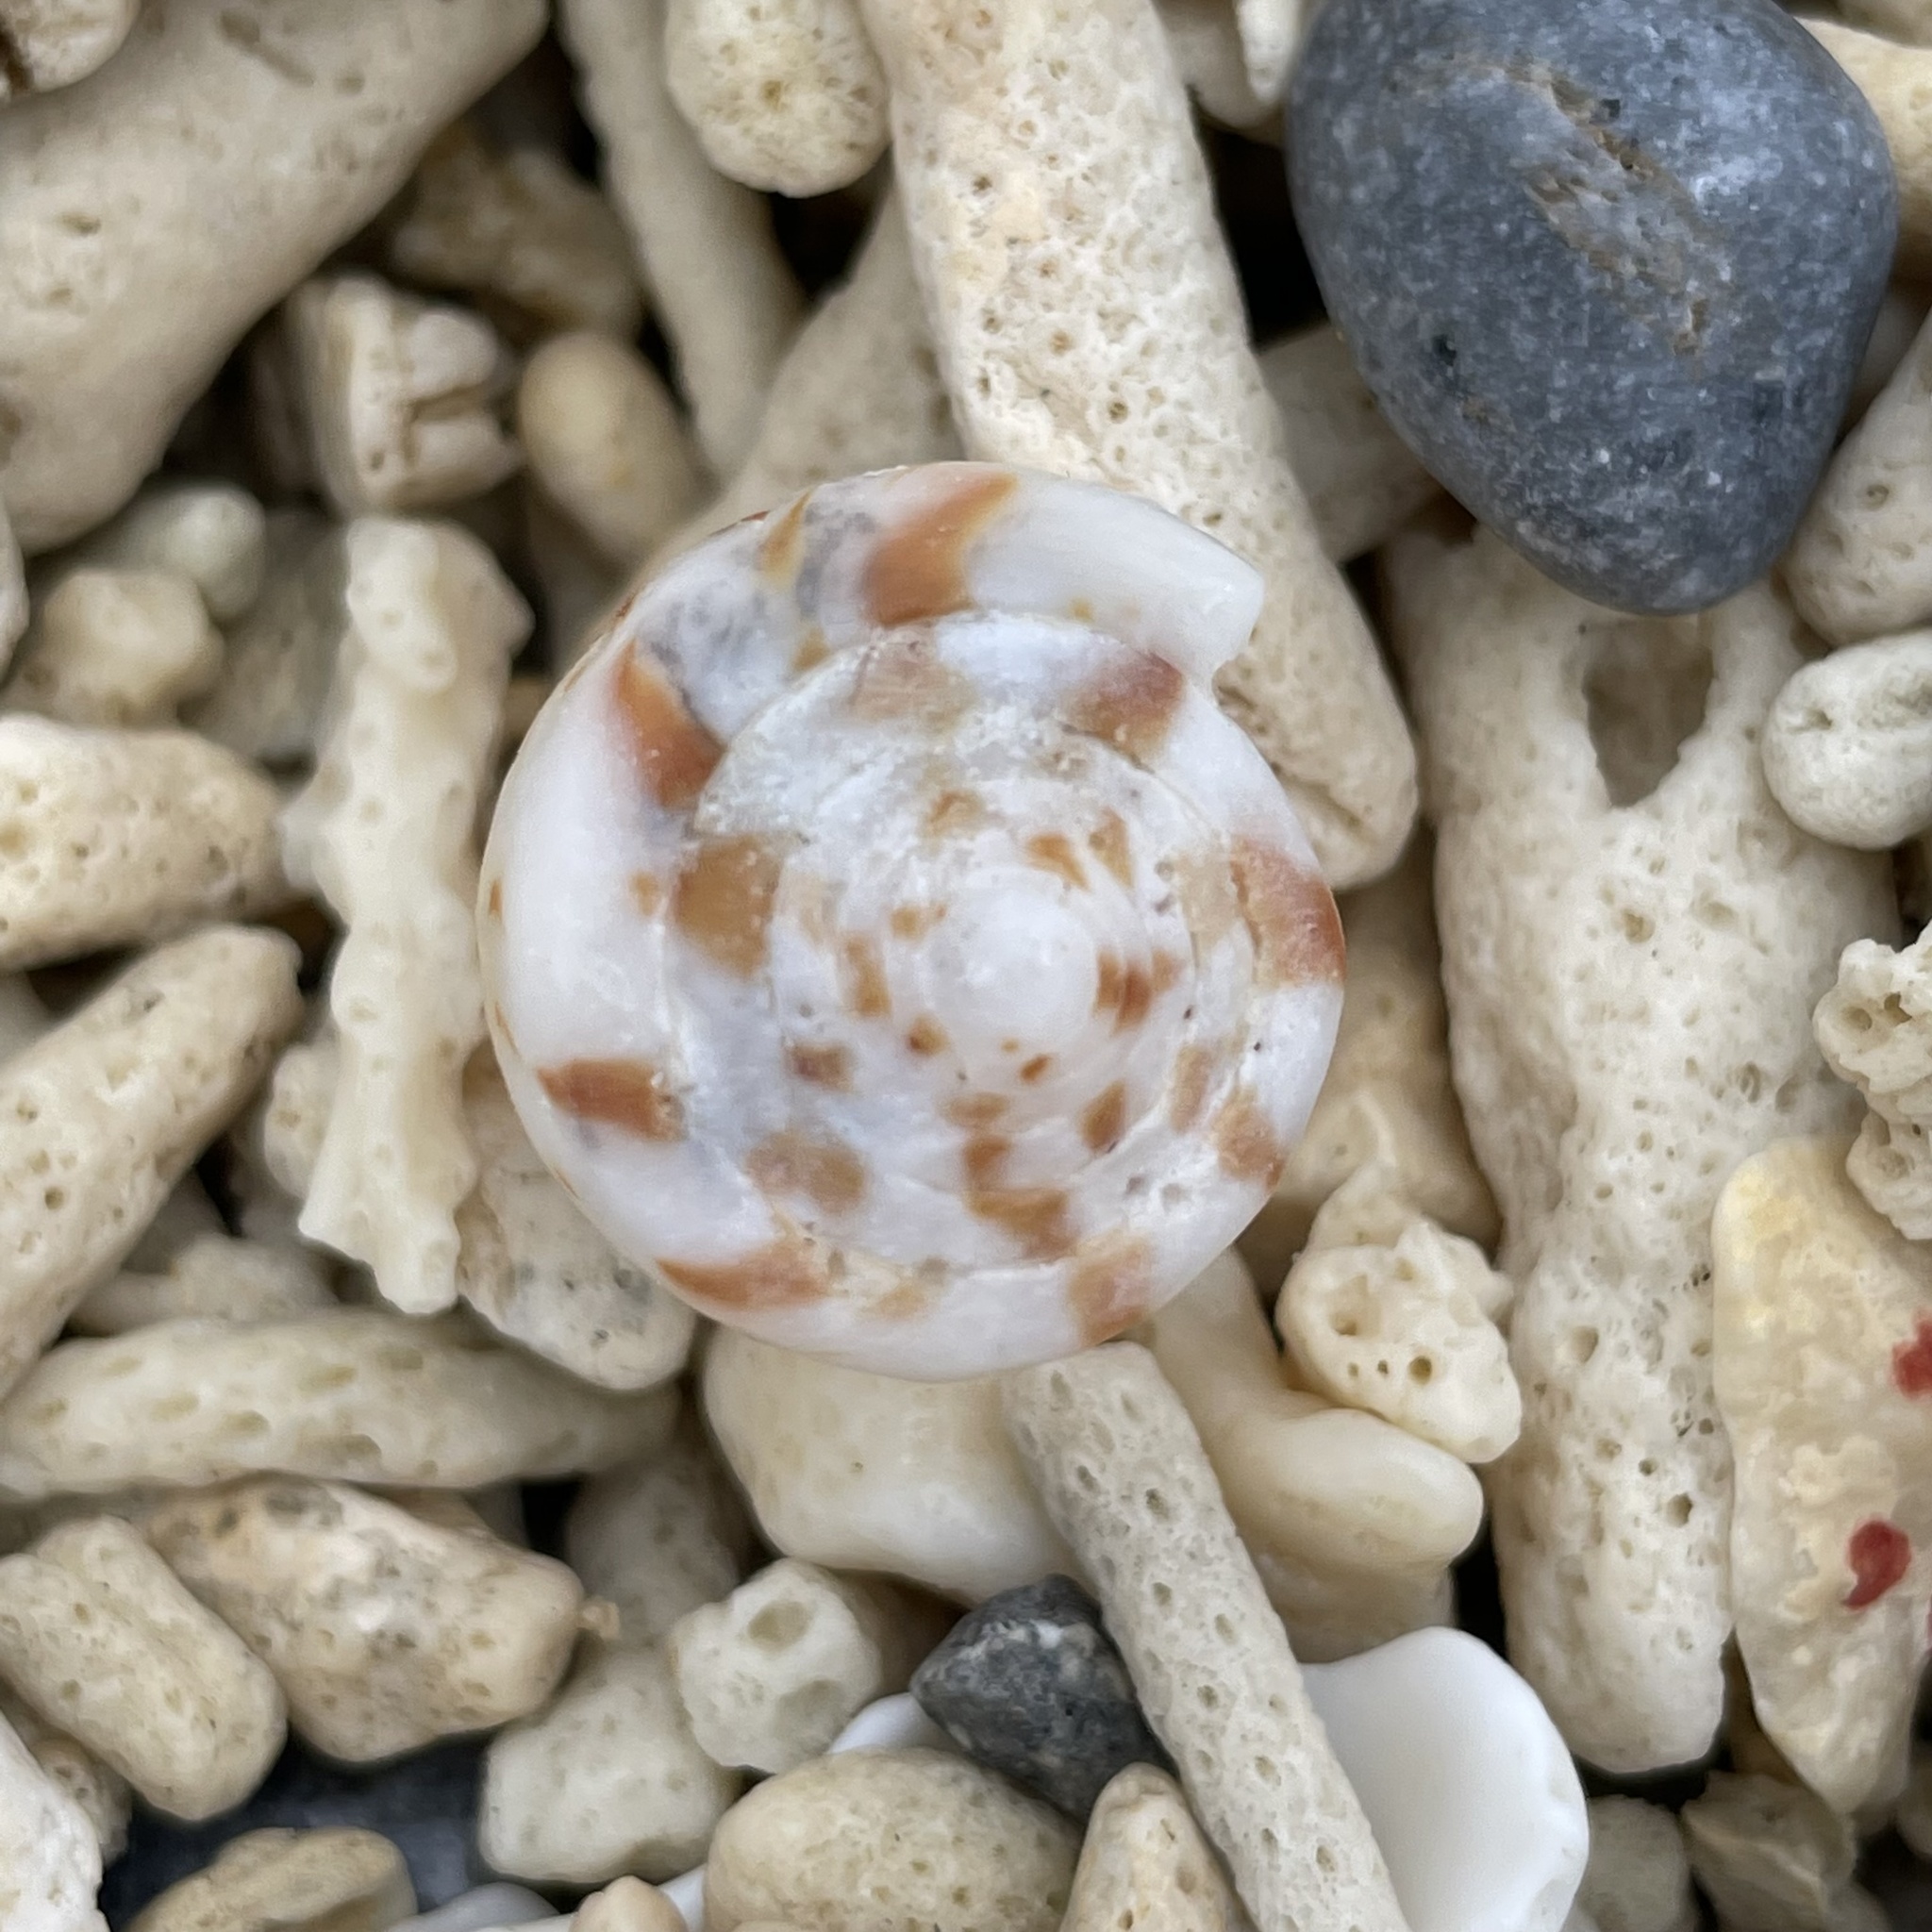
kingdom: Animalia
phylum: Mollusca
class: Gastropoda
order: Neogastropoda
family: Conidae
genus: Conus
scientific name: Conus mustelinus
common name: Weasel cone
